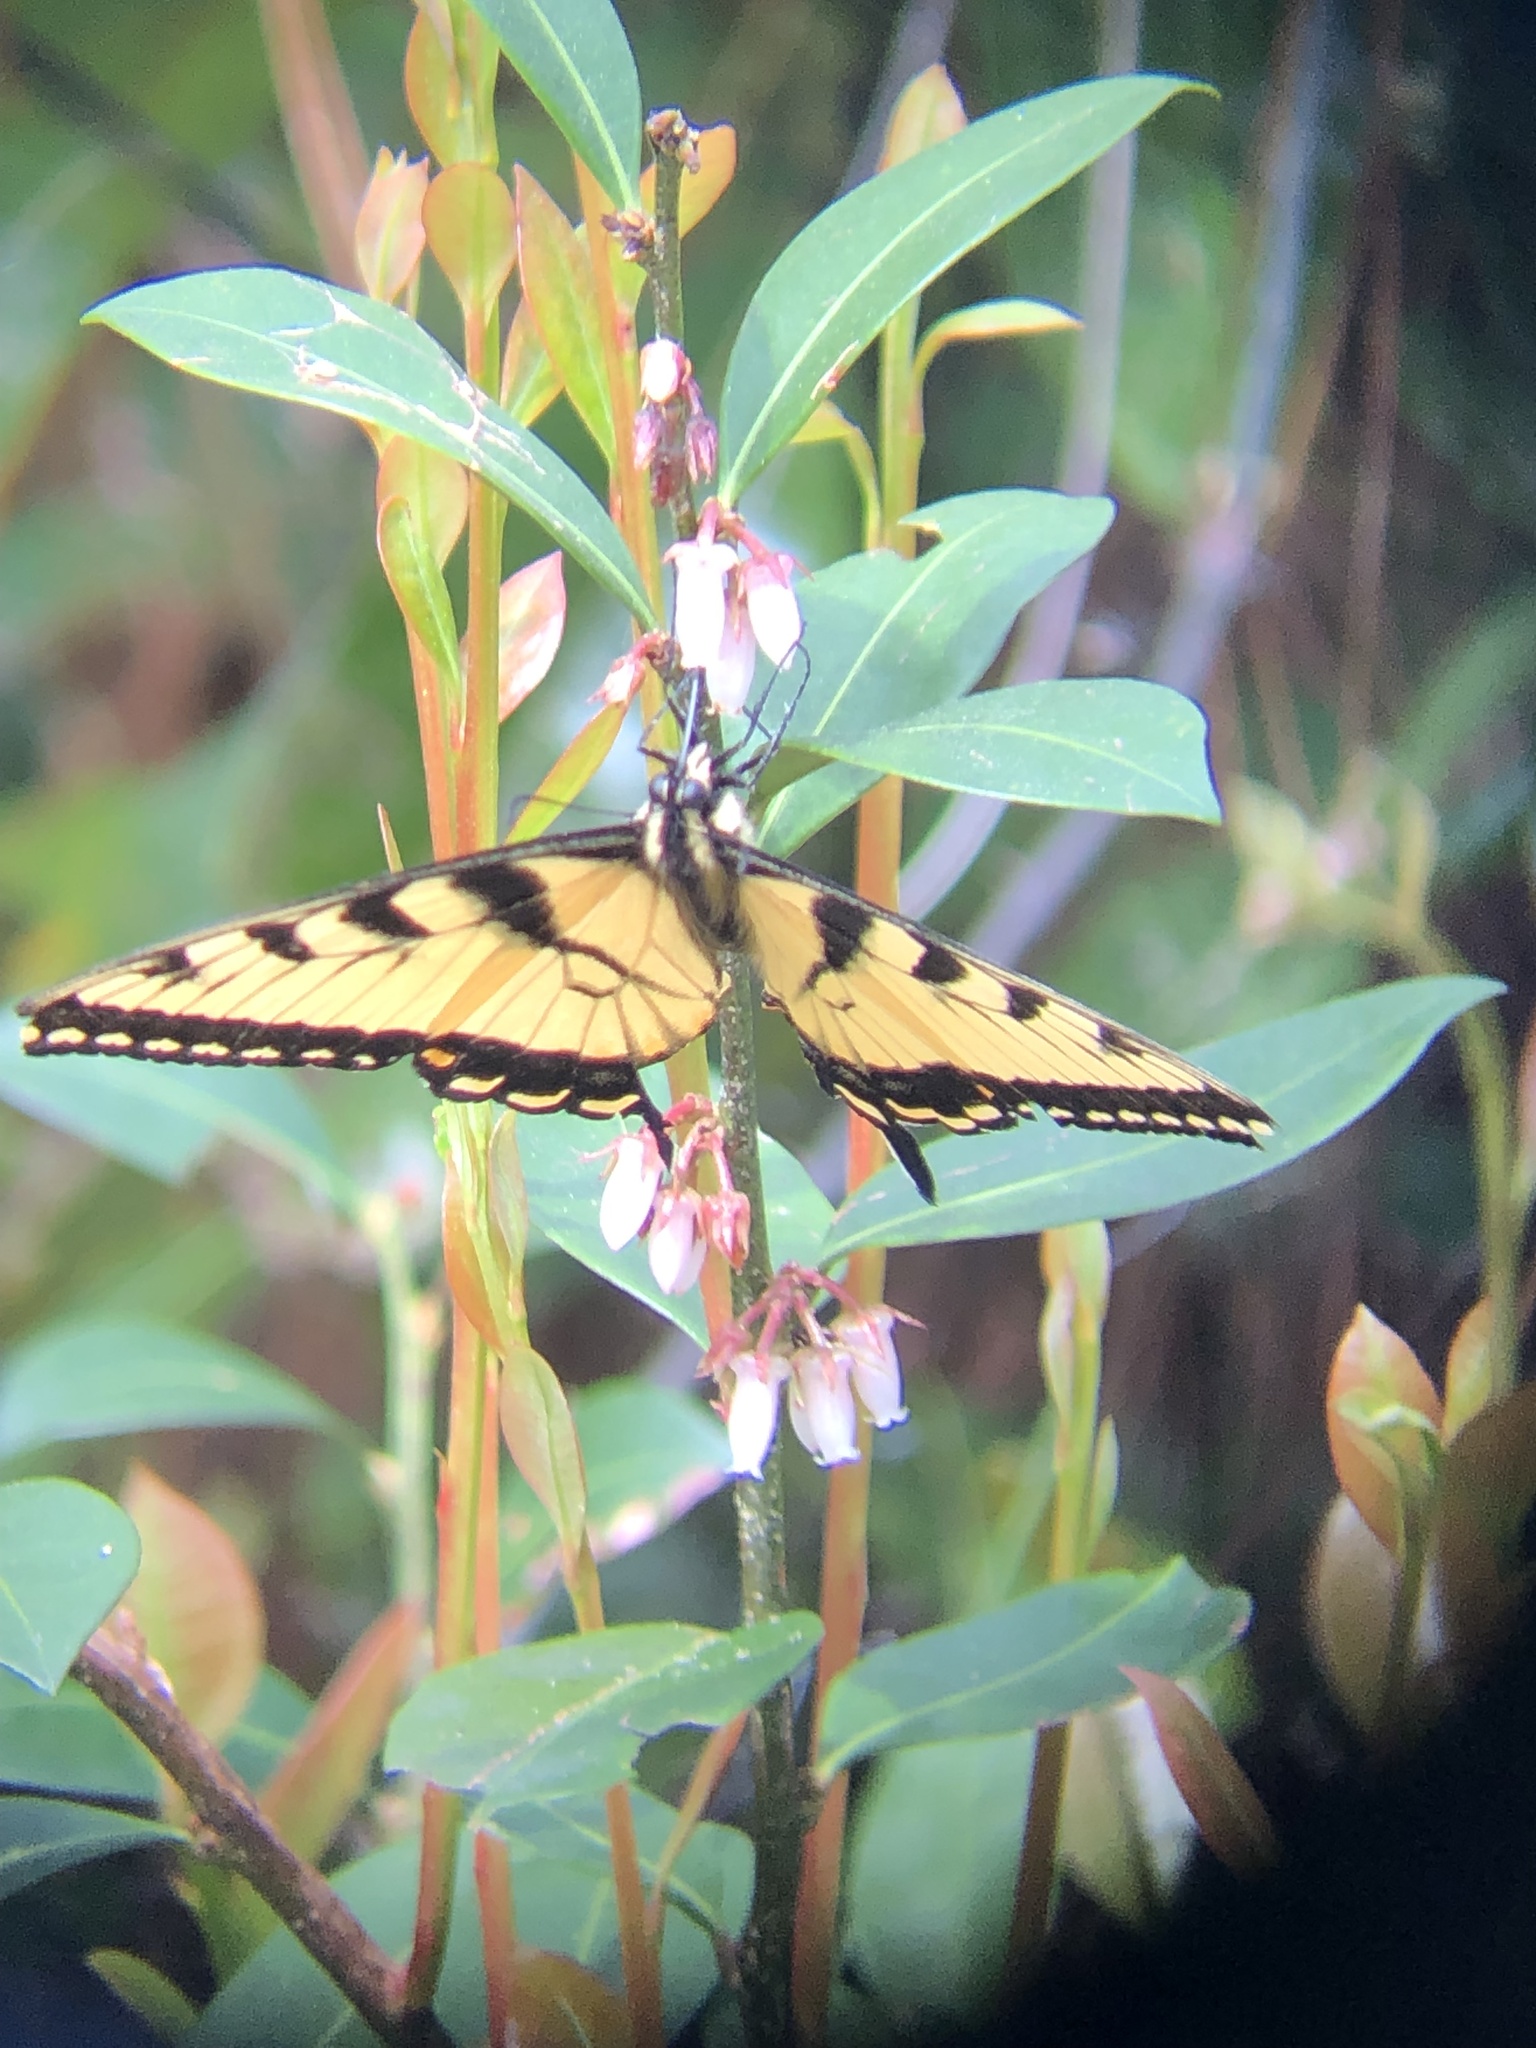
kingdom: Animalia
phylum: Arthropoda
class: Insecta
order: Lepidoptera
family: Papilionidae
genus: Papilio
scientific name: Papilio glaucus
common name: Tiger swallowtail
